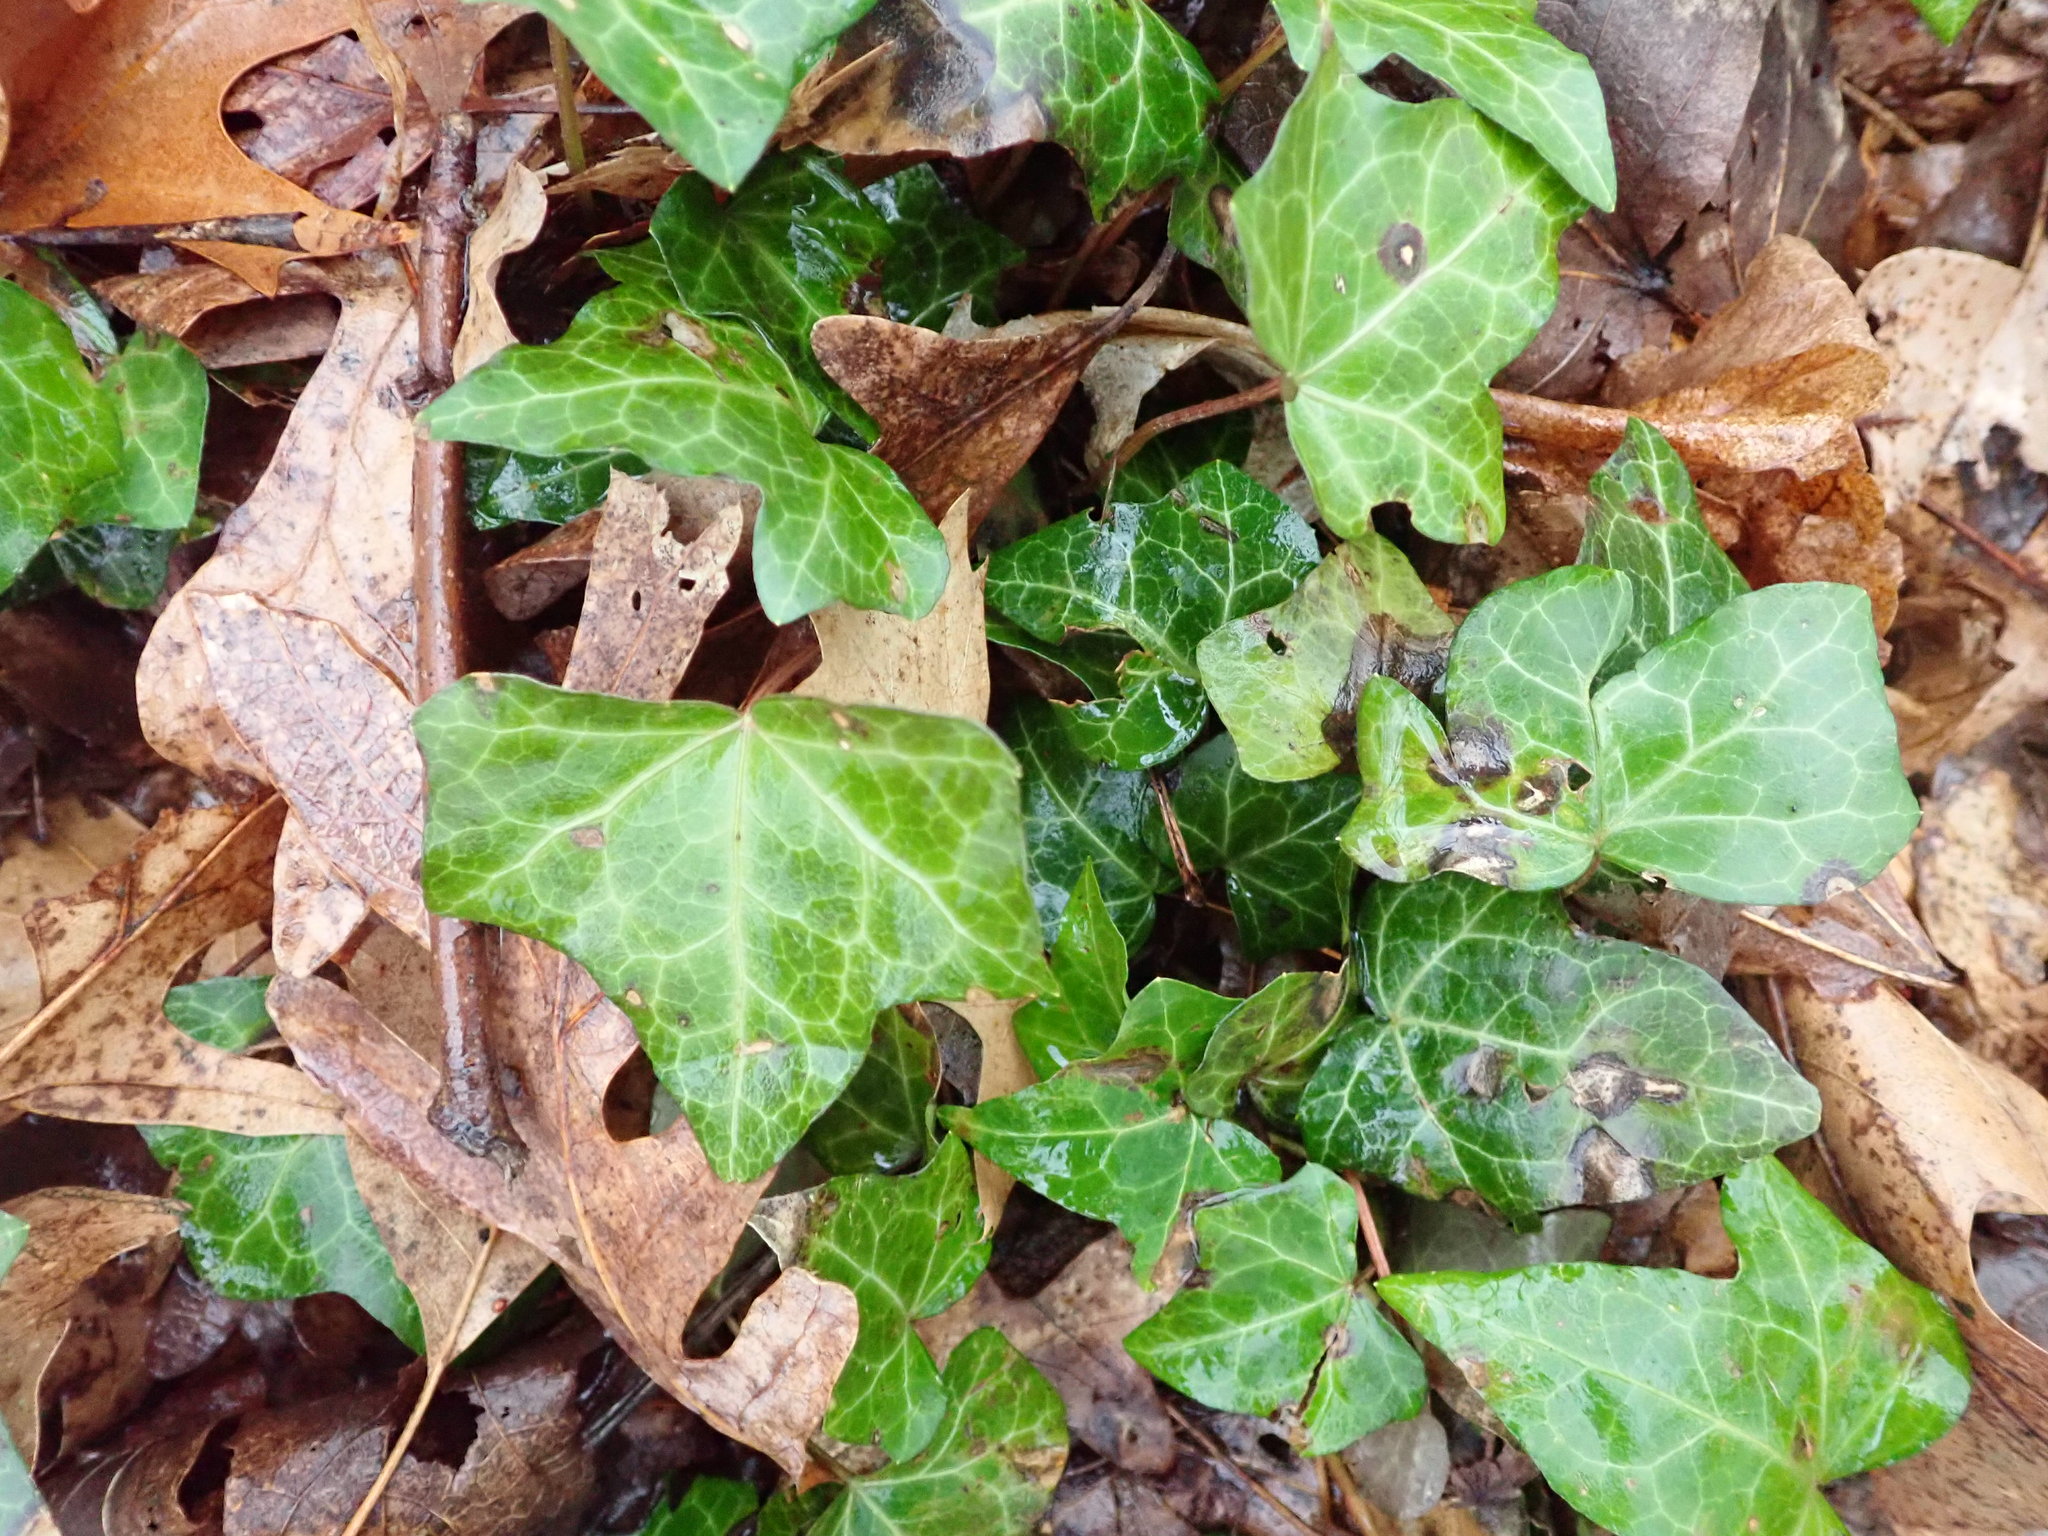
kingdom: Plantae
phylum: Tracheophyta
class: Magnoliopsida
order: Apiales
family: Araliaceae
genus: Hedera
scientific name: Hedera helix
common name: Ivy
